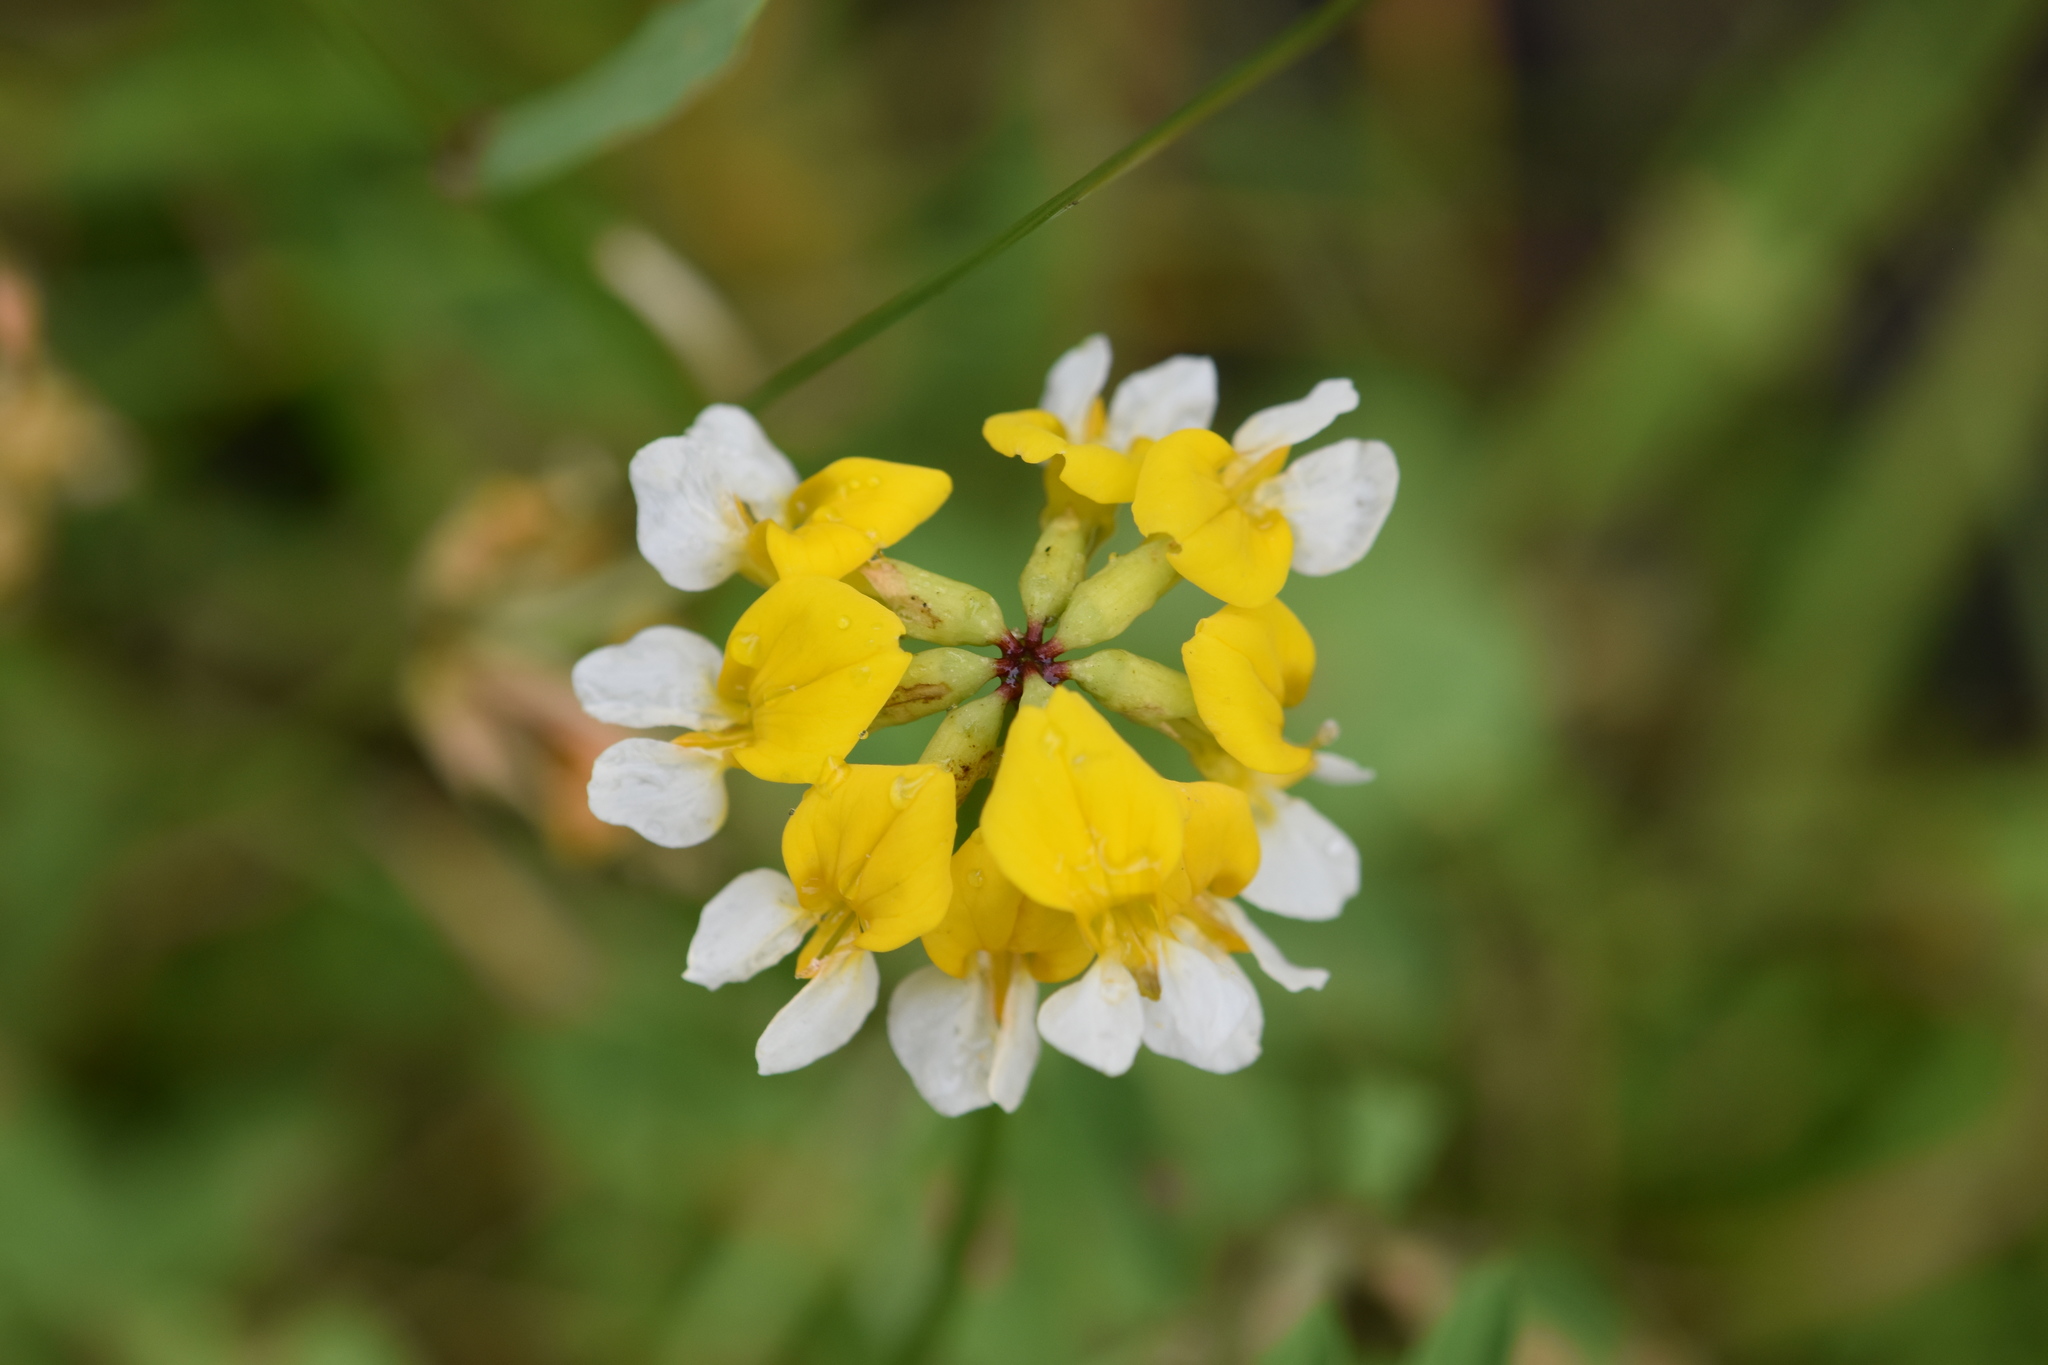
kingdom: Plantae
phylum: Tracheophyta
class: Magnoliopsida
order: Fabales
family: Fabaceae
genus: Hosackia
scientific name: Hosackia pinnata
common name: Bog bird's-foot trefoil
